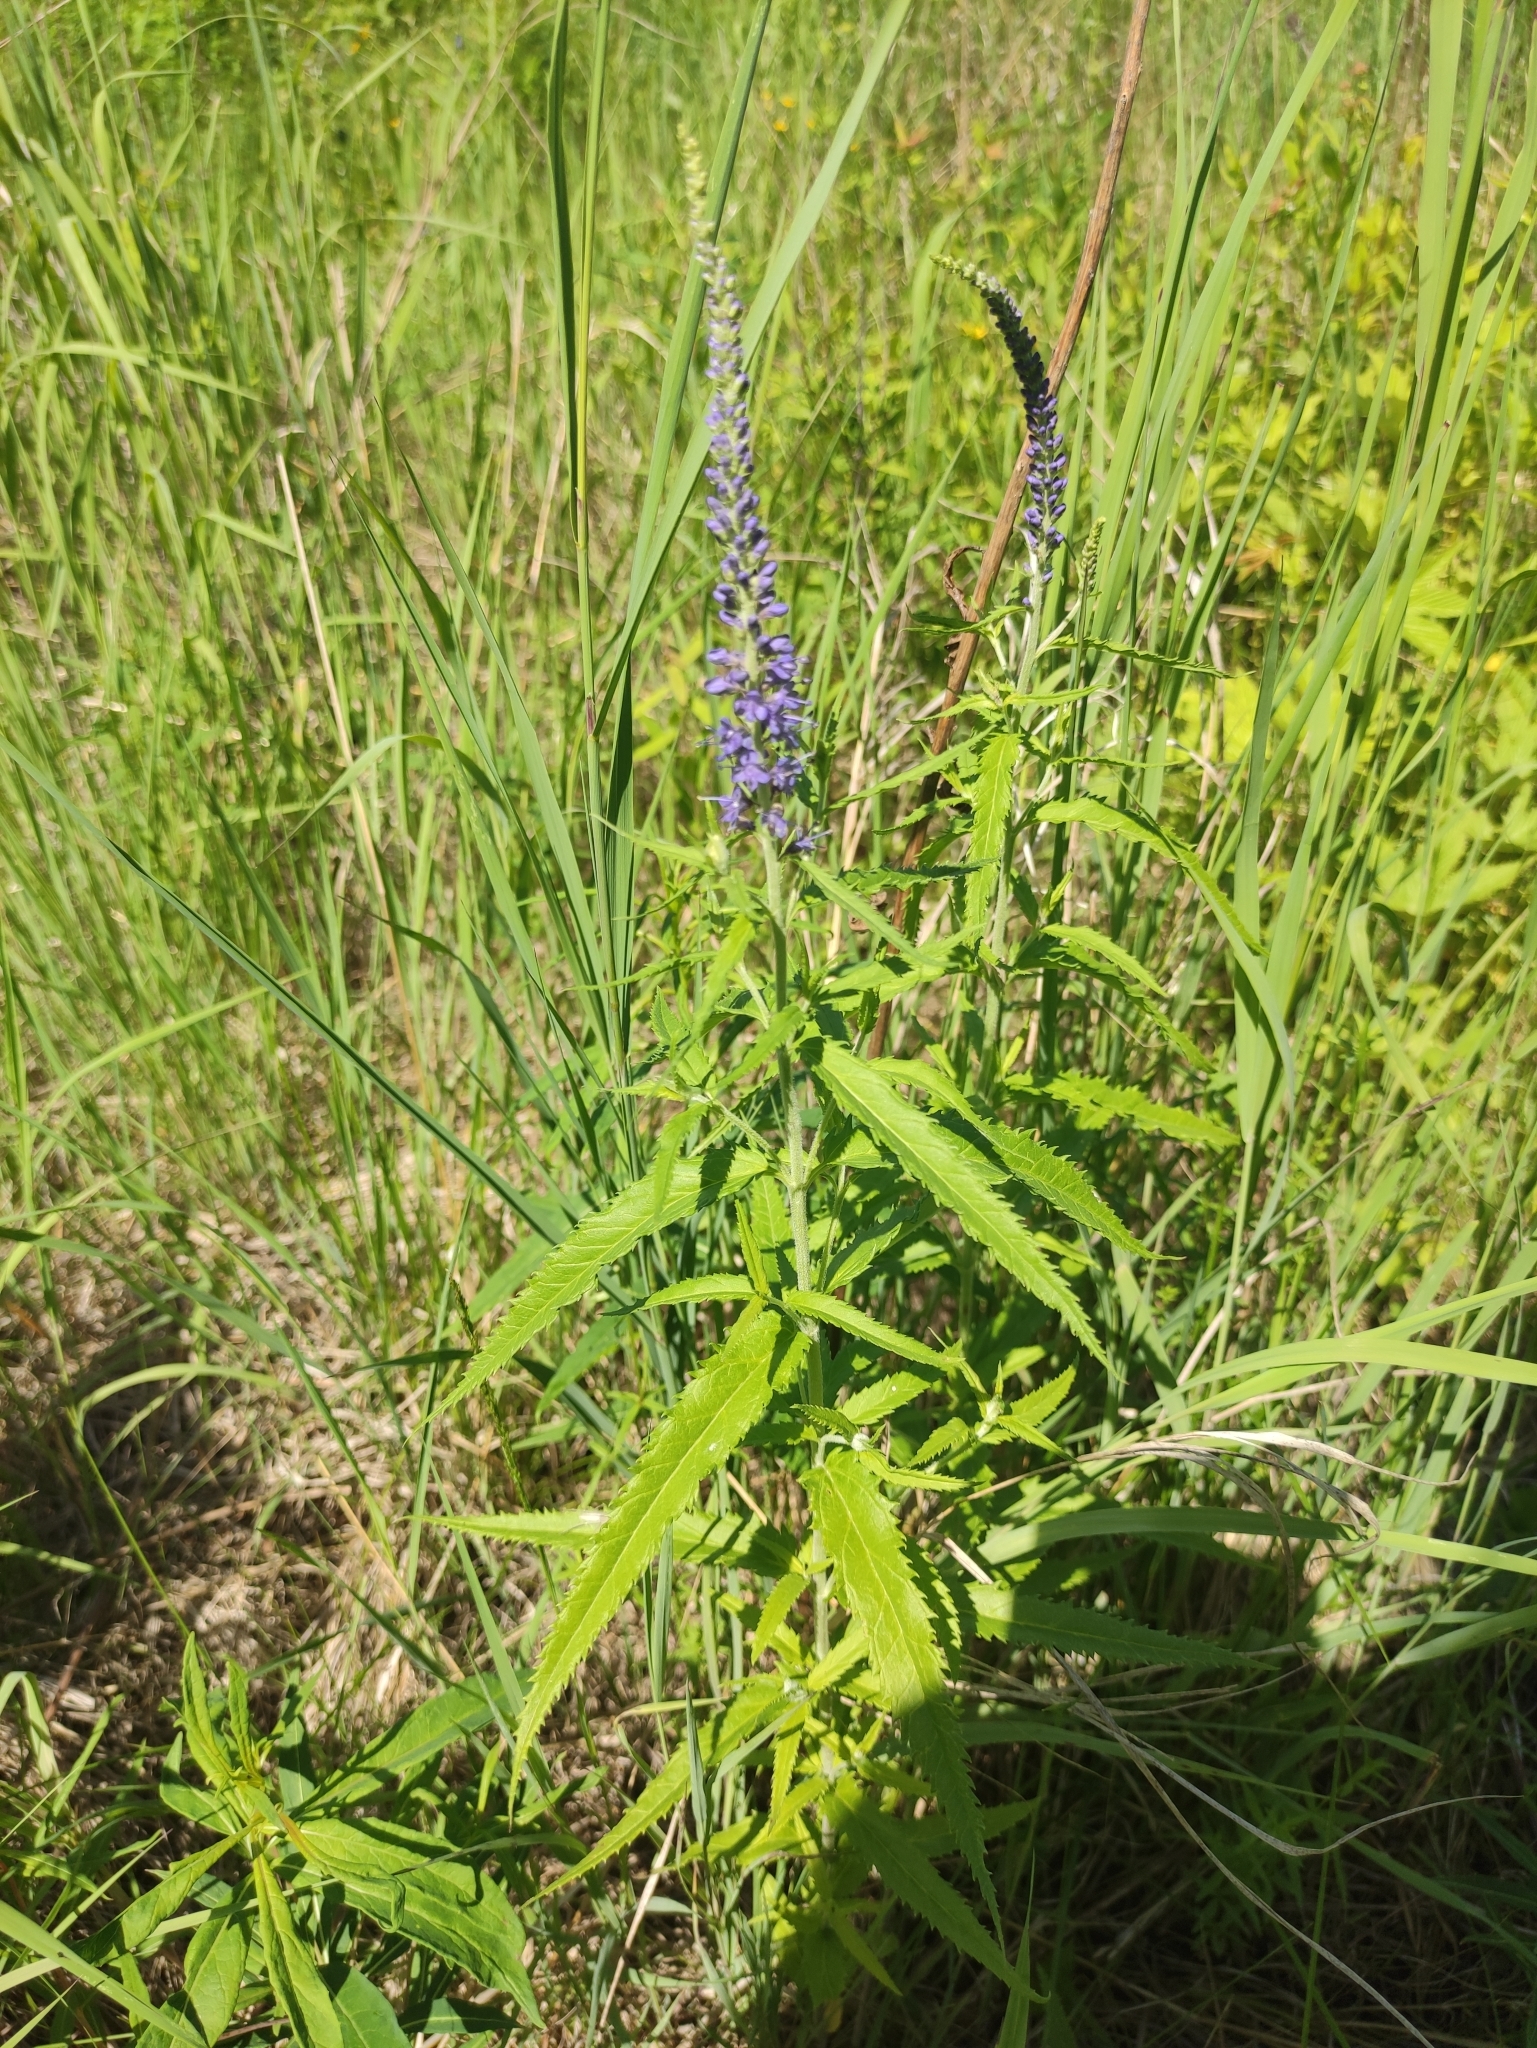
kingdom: Plantae
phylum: Tracheophyta
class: Magnoliopsida
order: Lamiales
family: Plantaginaceae
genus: Veronica
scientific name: Veronica longifolia
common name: Garden speedwell
